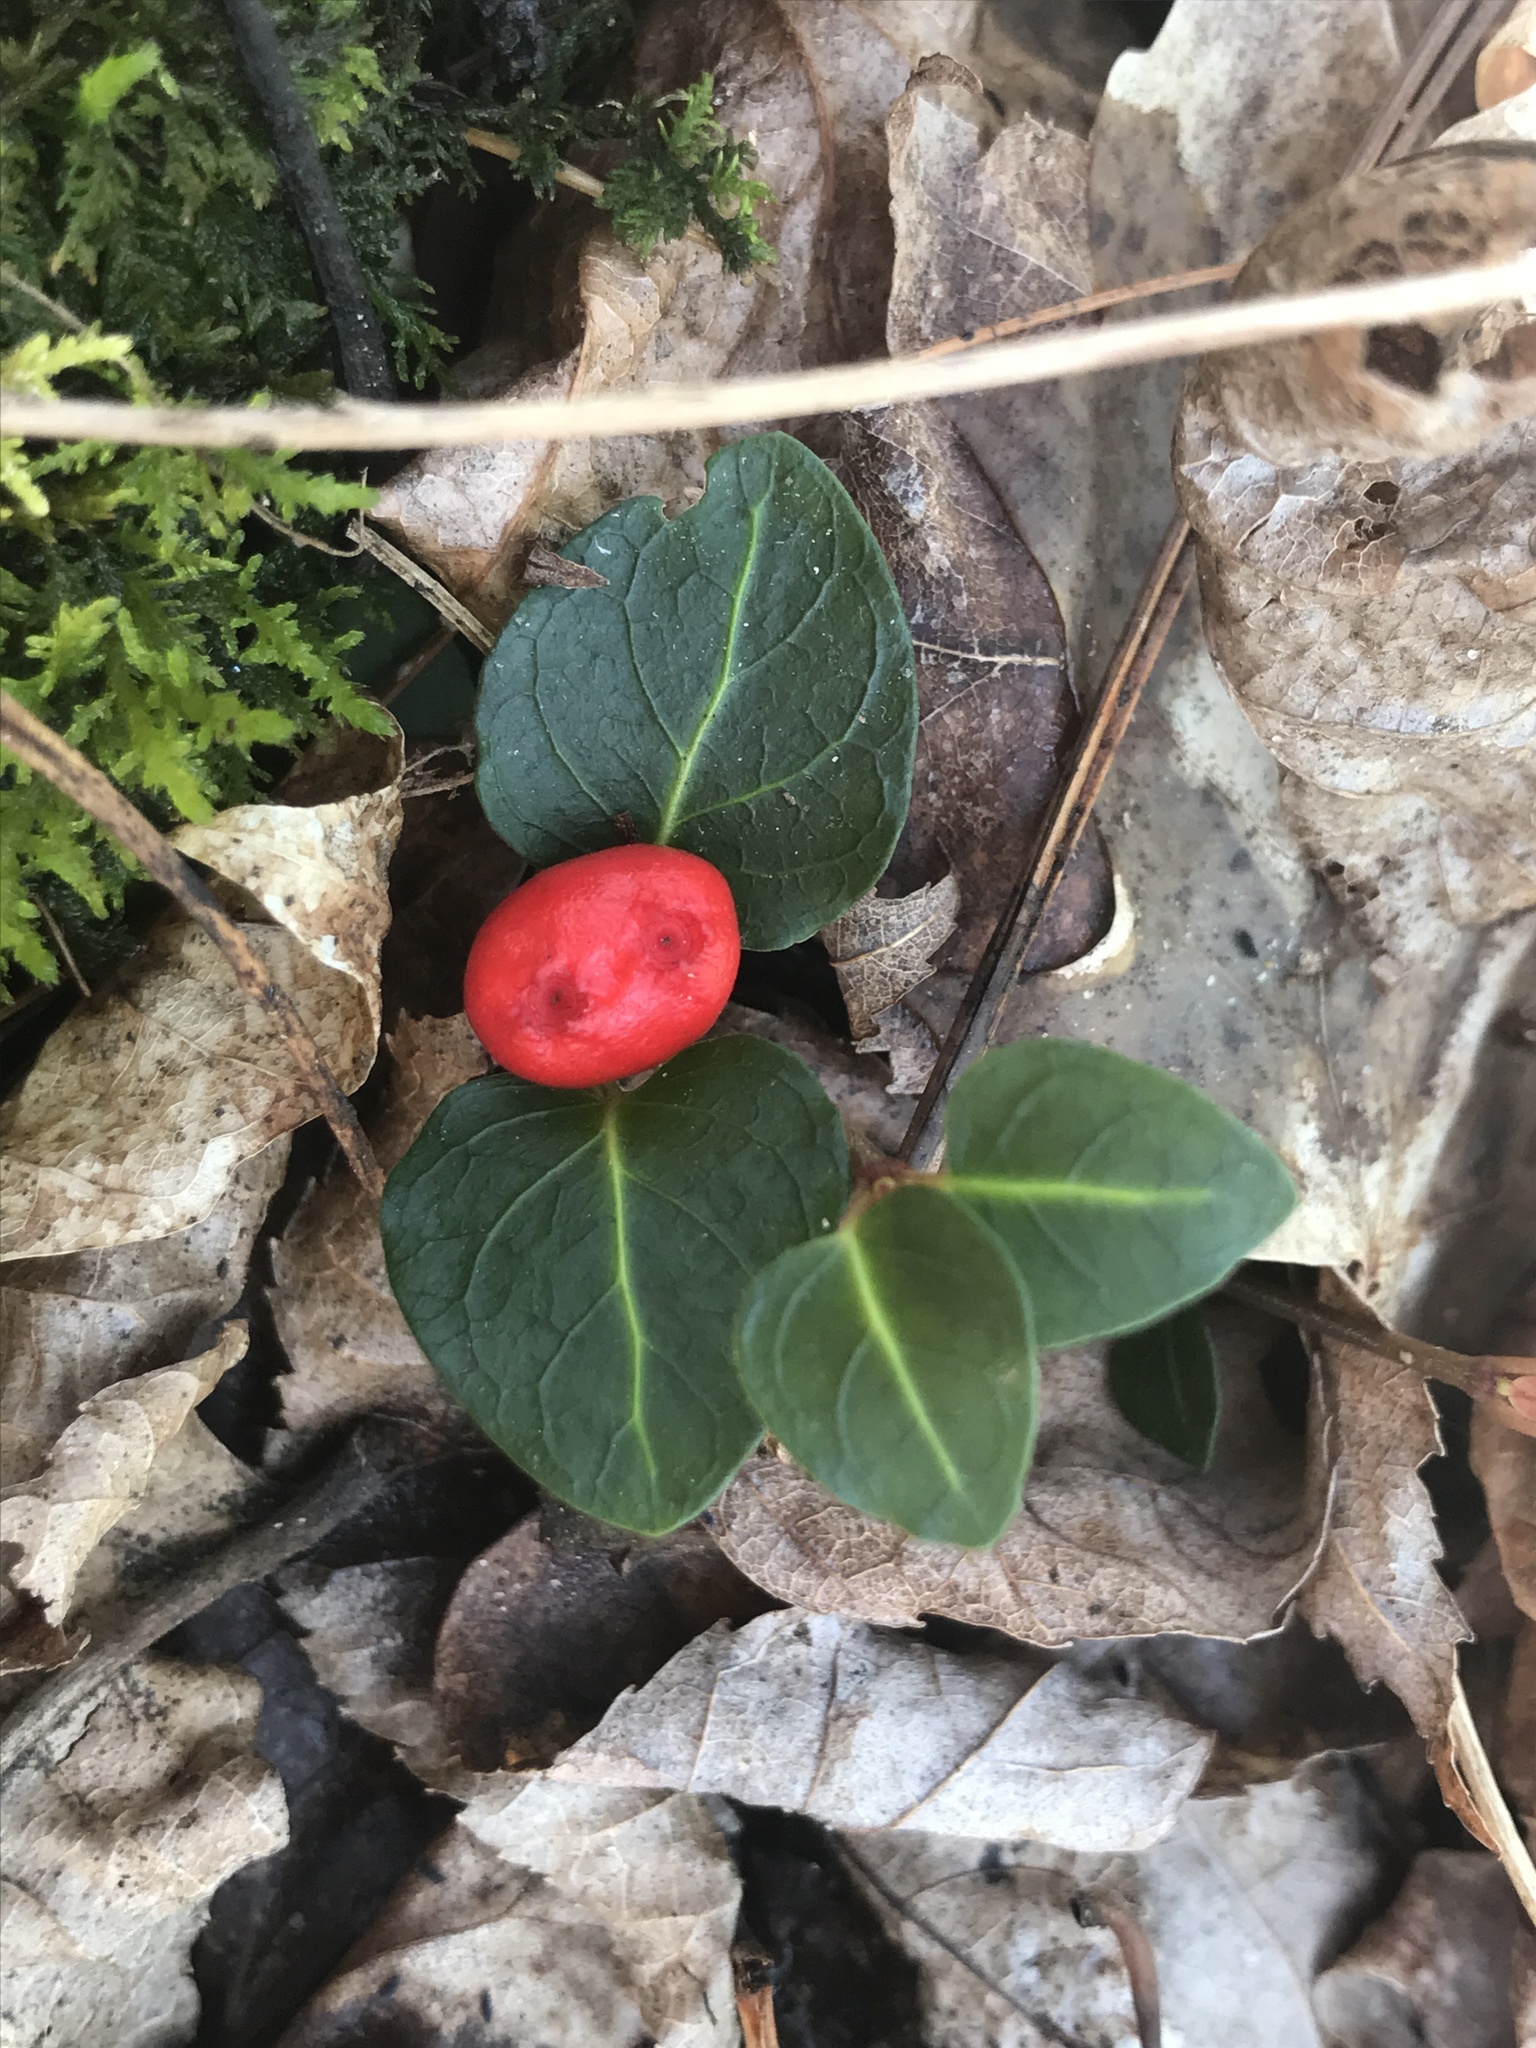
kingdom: Plantae
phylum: Tracheophyta
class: Magnoliopsida
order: Gentianales
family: Rubiaceae
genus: Mitchella
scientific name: Mitchella repens
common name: Partridge-berry
